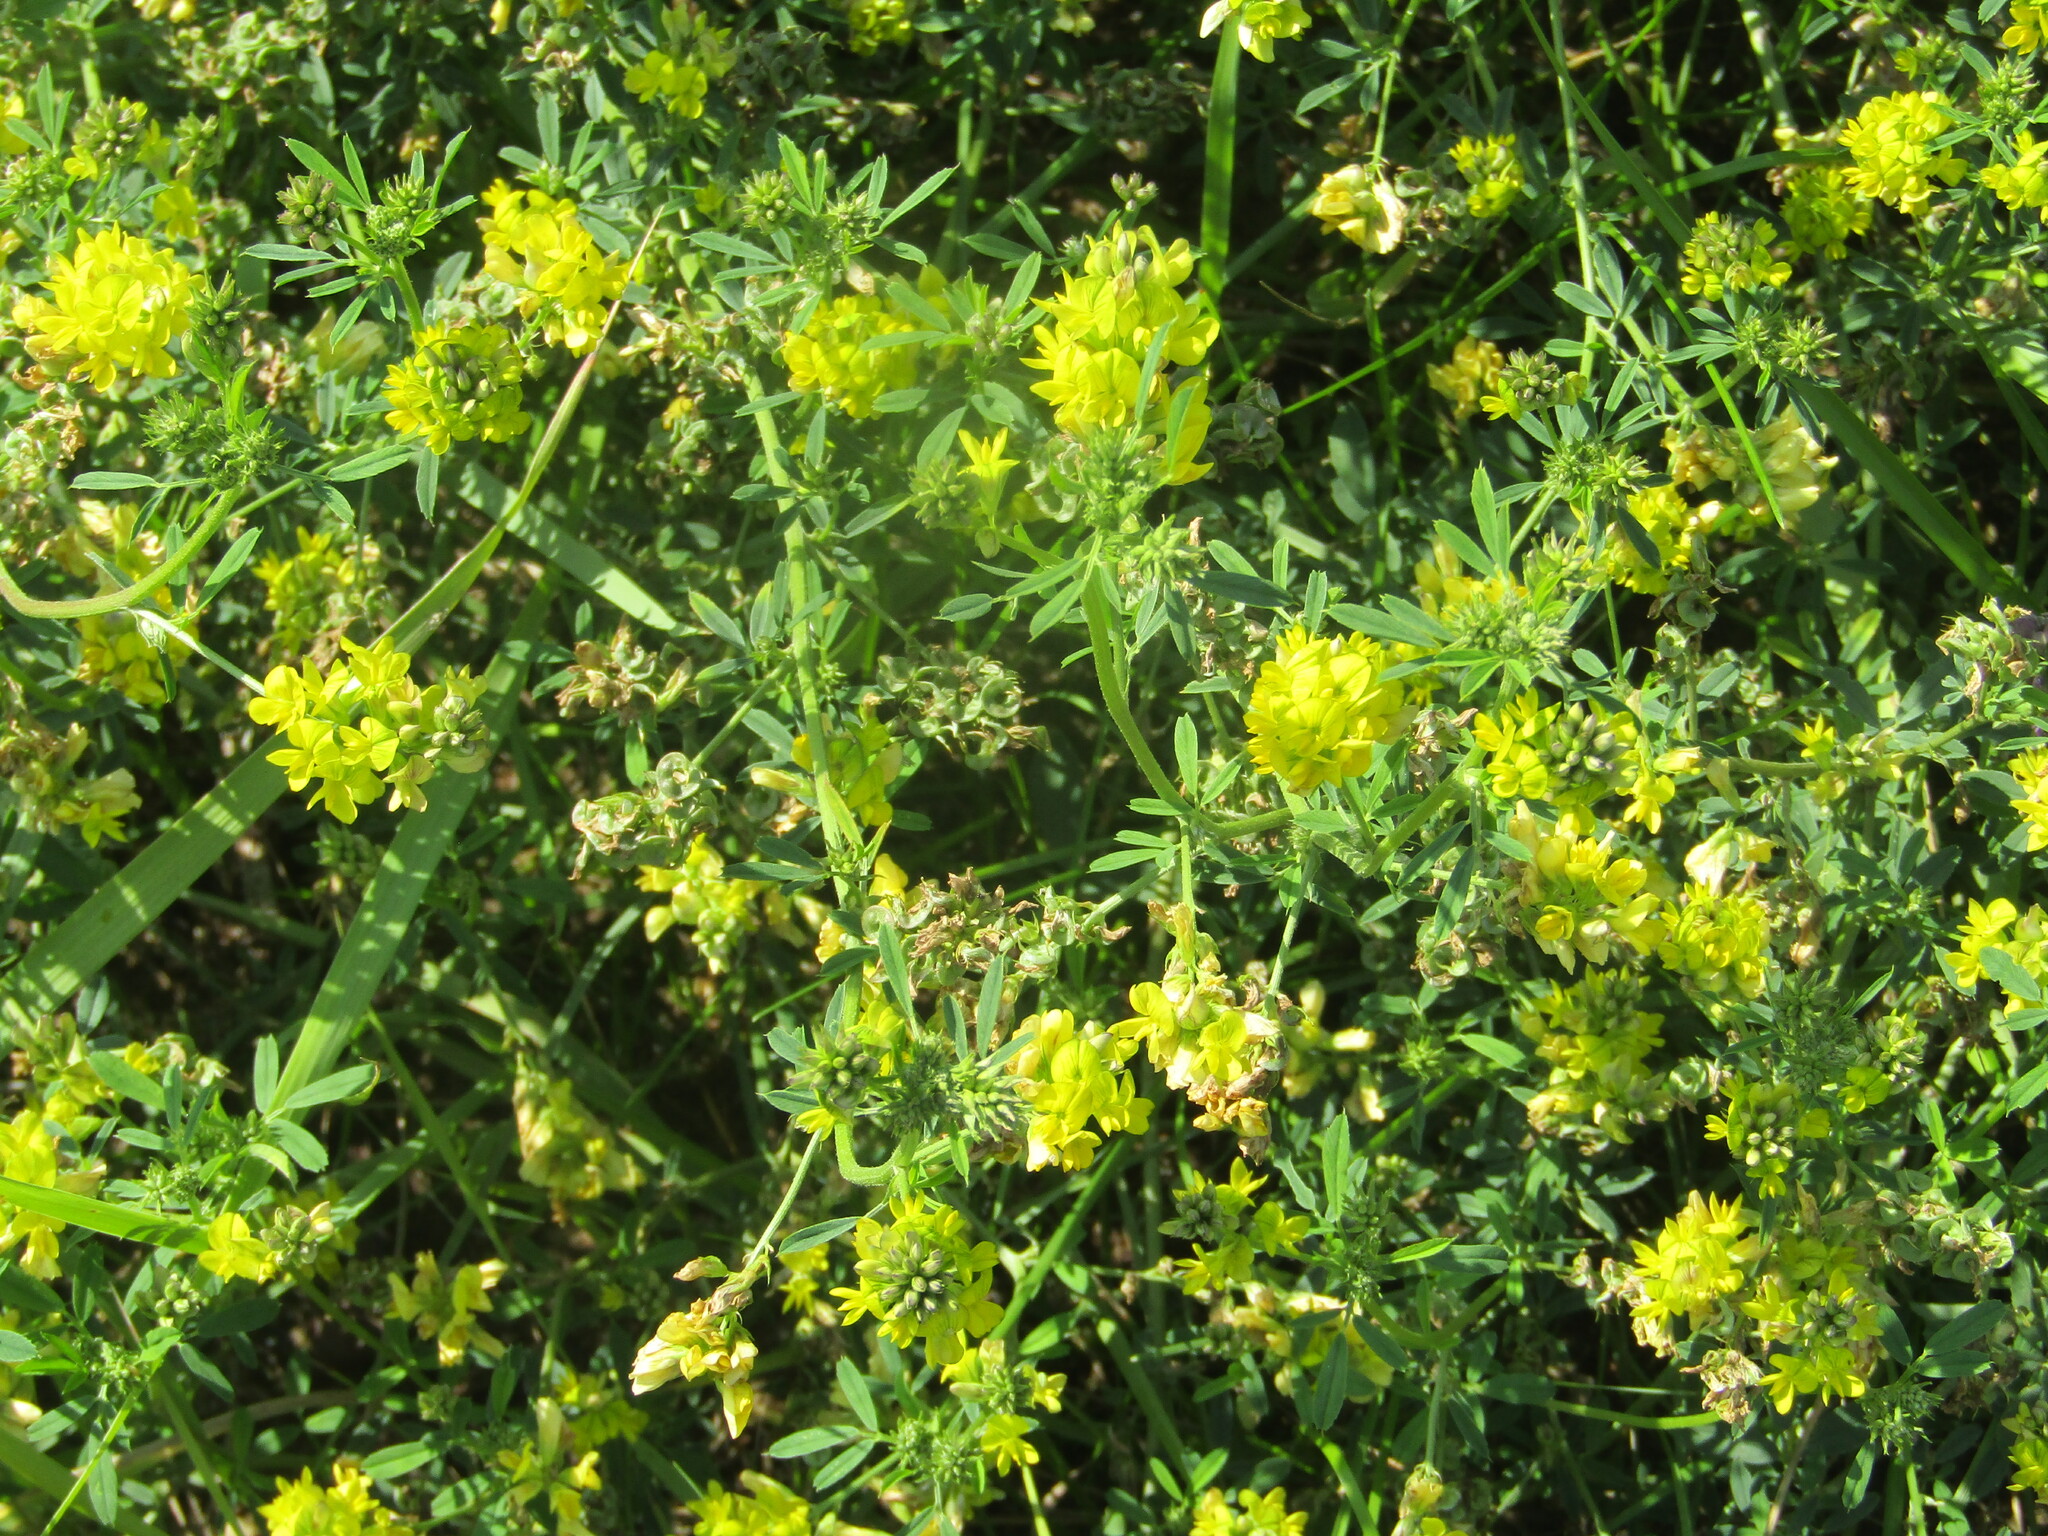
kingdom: Plantae
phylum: Tracheophyta
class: Magnoliopsida
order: Fabales
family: Fabaceae
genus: Medicago
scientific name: Medicago falcata
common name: Sickle medick
